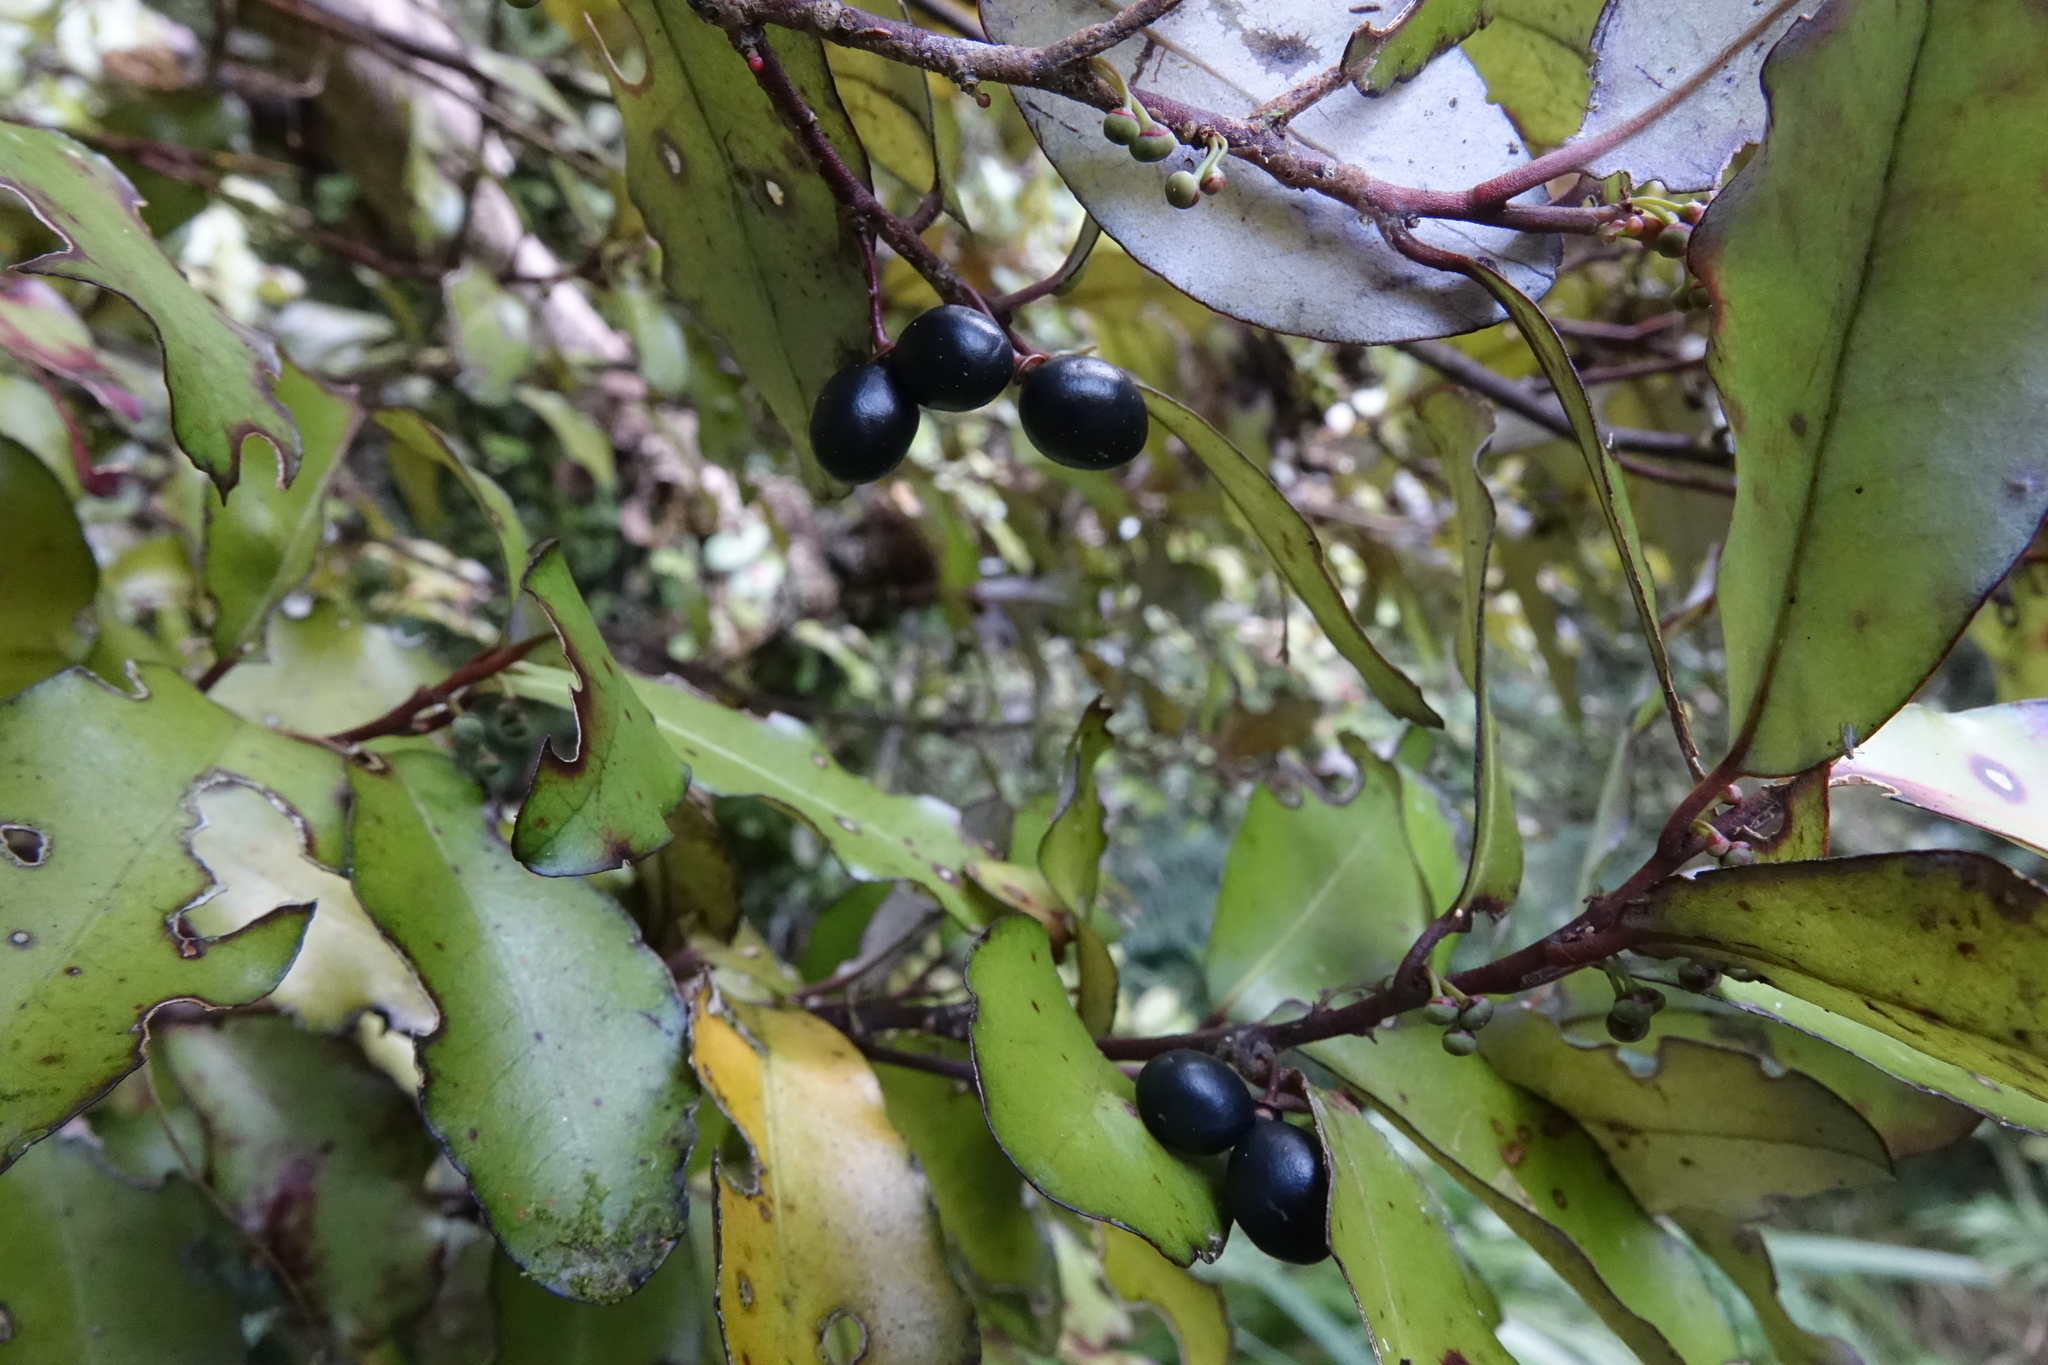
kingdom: Plantae
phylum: Tracheophyta
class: Magnoliopsida
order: Canellales
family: Winteraceae
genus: Pseudowintera
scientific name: Pseudowintera colorata
